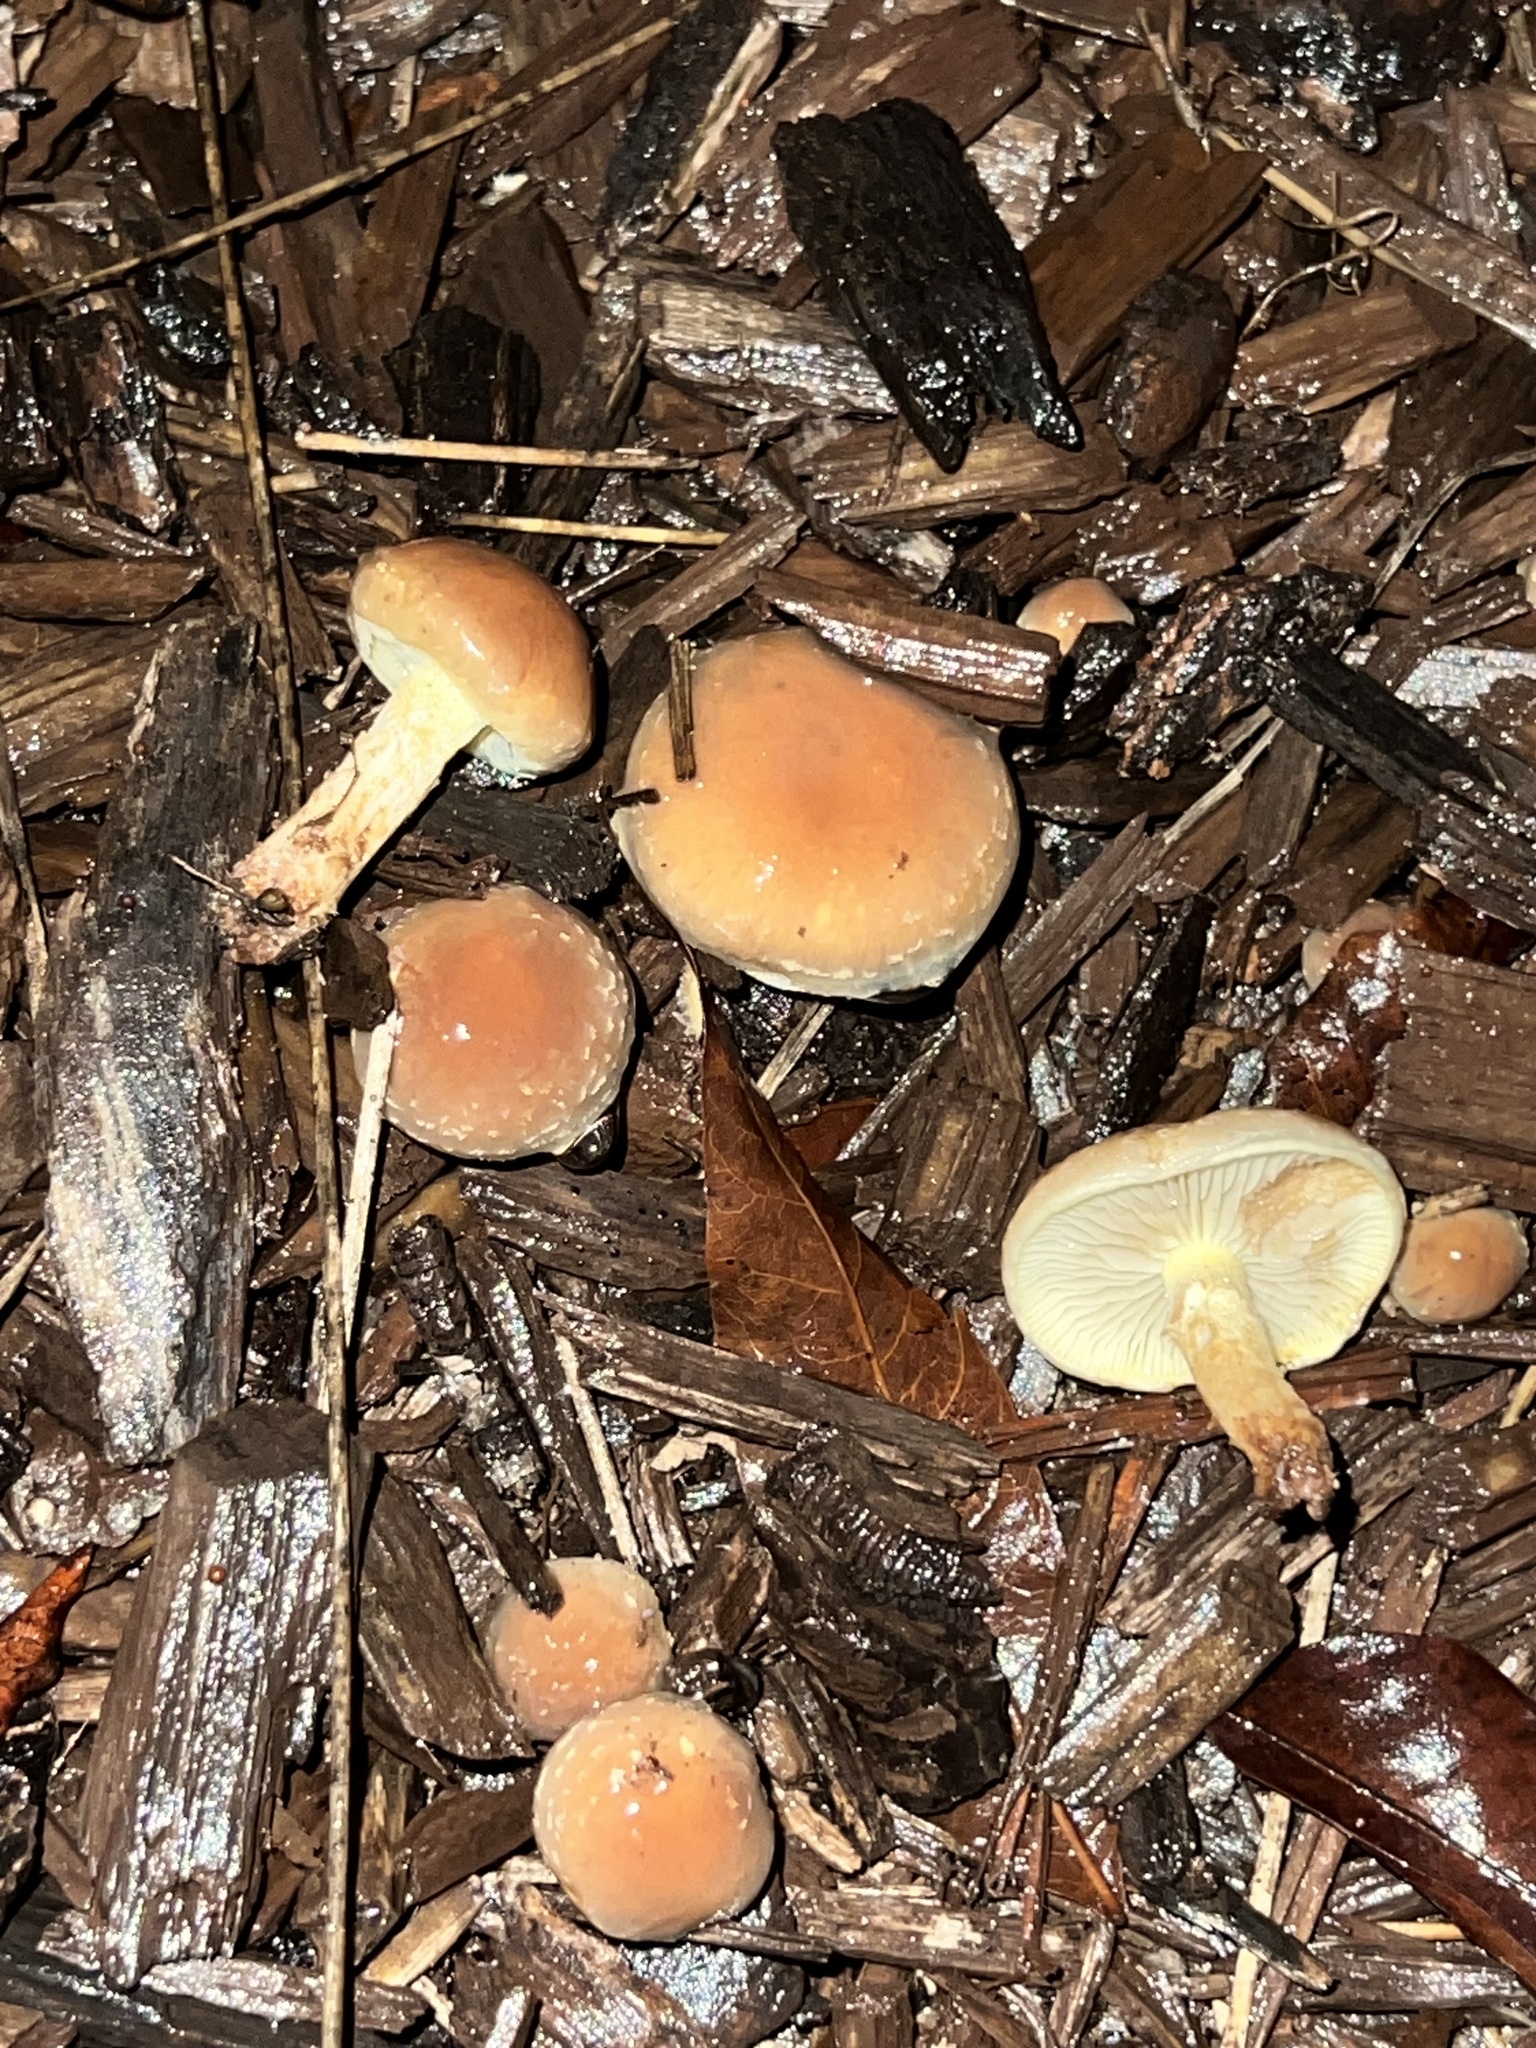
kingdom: Fungi
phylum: Basidiomycota
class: Agaricomycetes
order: Agaricales
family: Strophariaceae
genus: Pholiota
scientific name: Pholiota velaglutinosa
